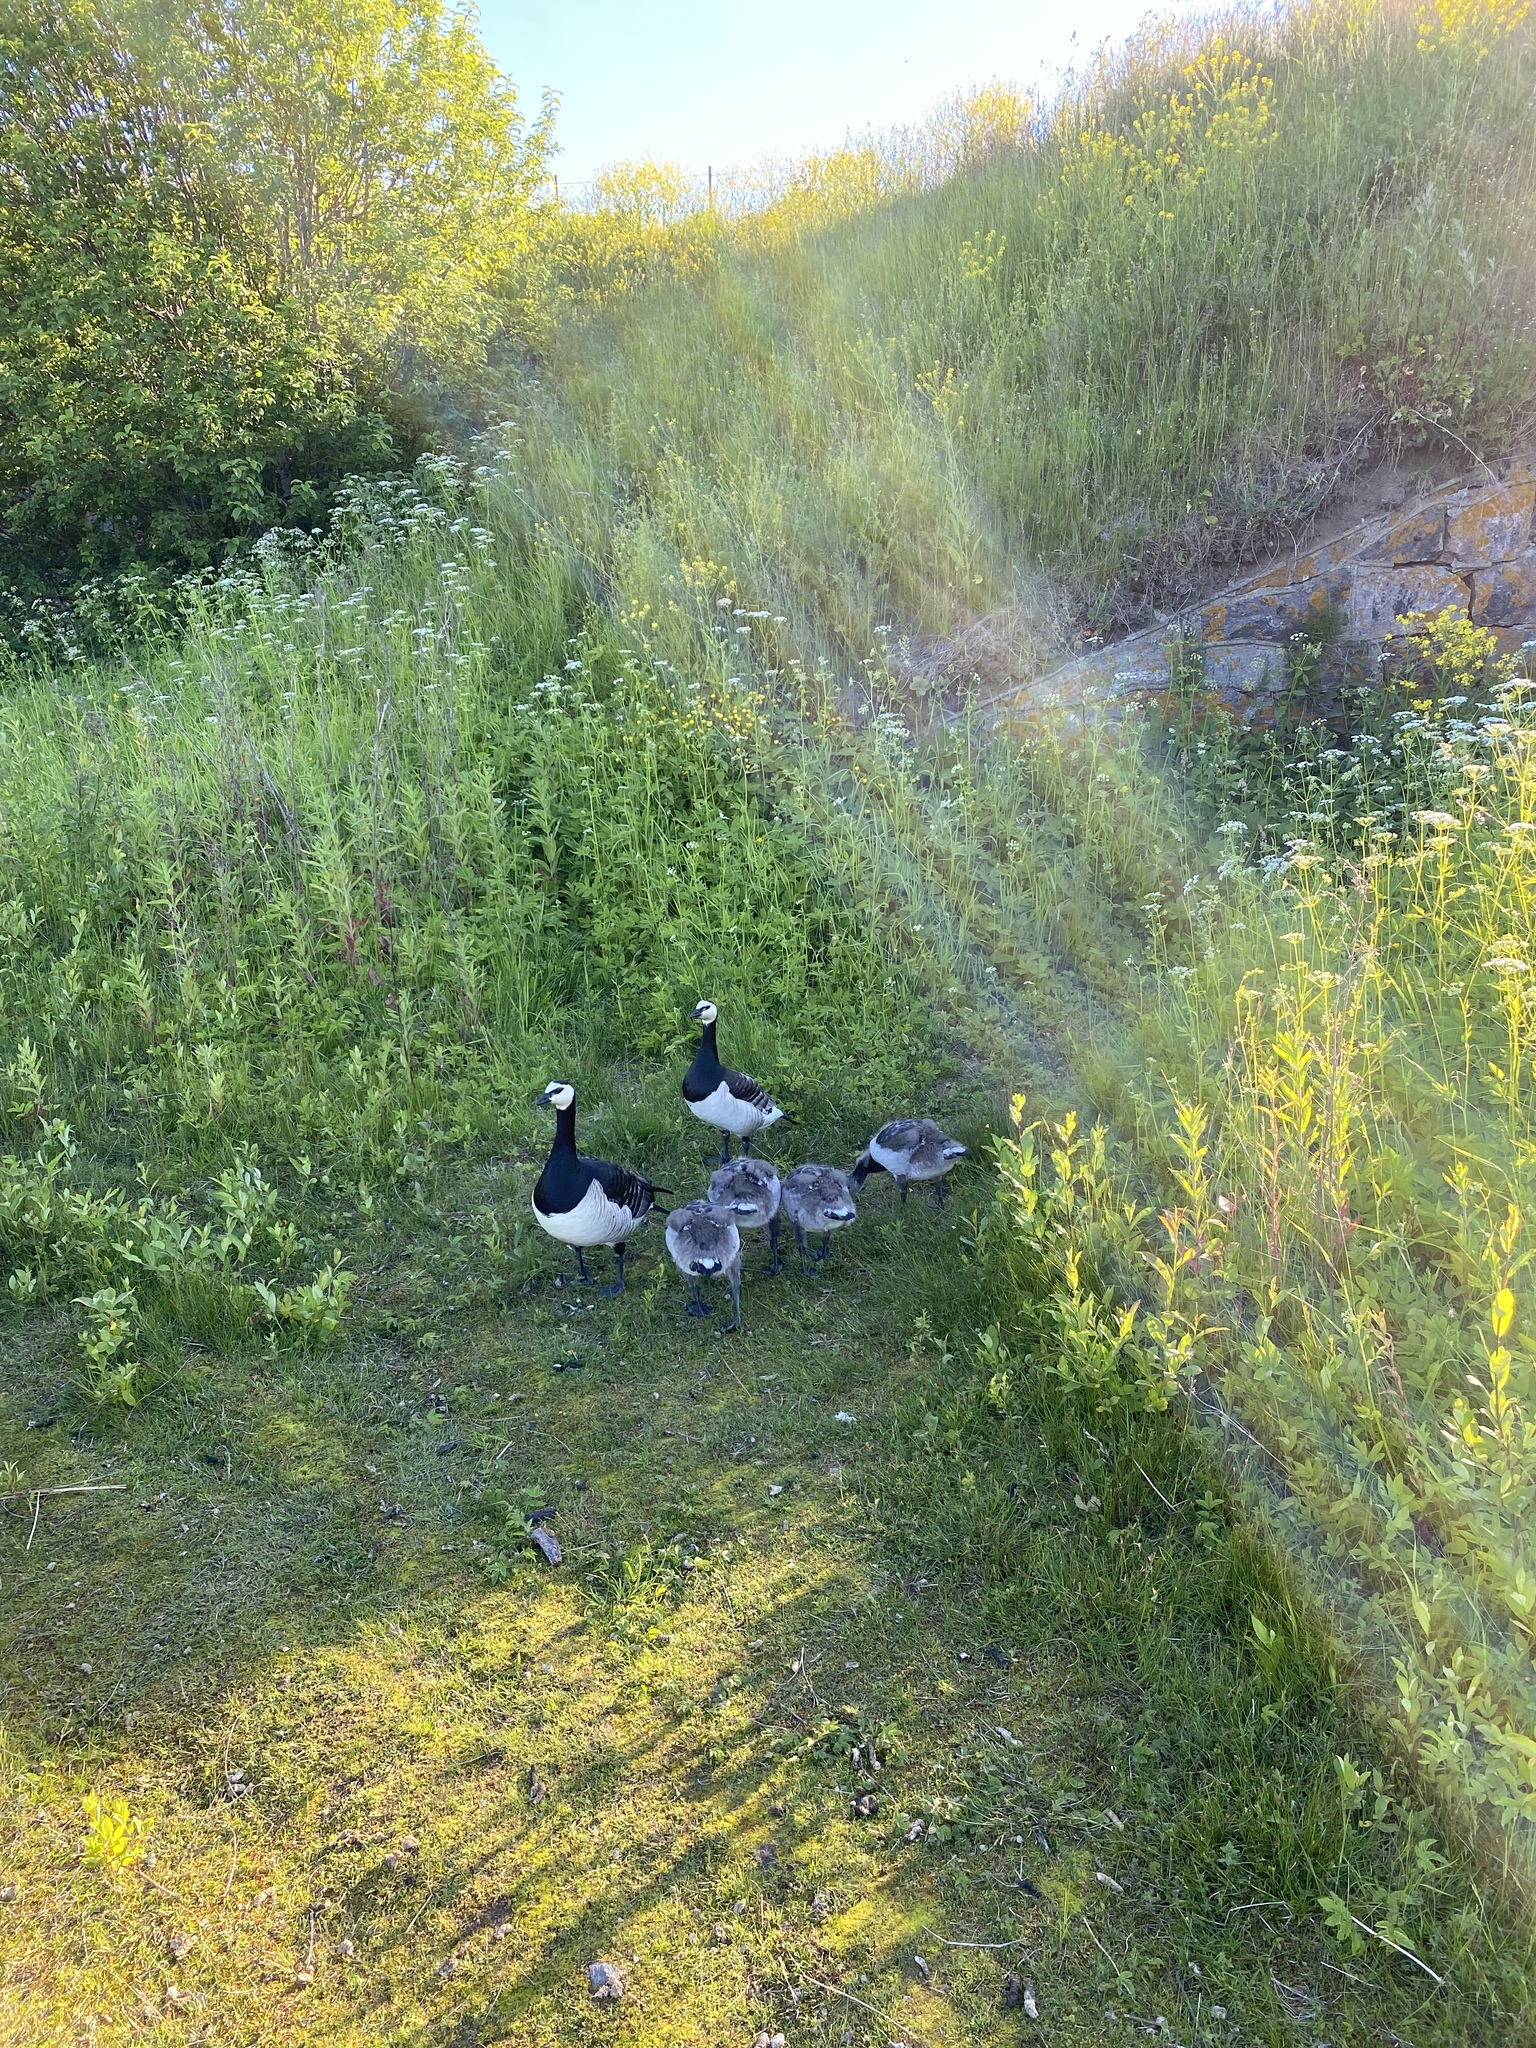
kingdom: Animalia
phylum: Chordata
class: Aves
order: Anseriformes
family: Anatidae
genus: Branta
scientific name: Branta leucopsis
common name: Barnacle goose
